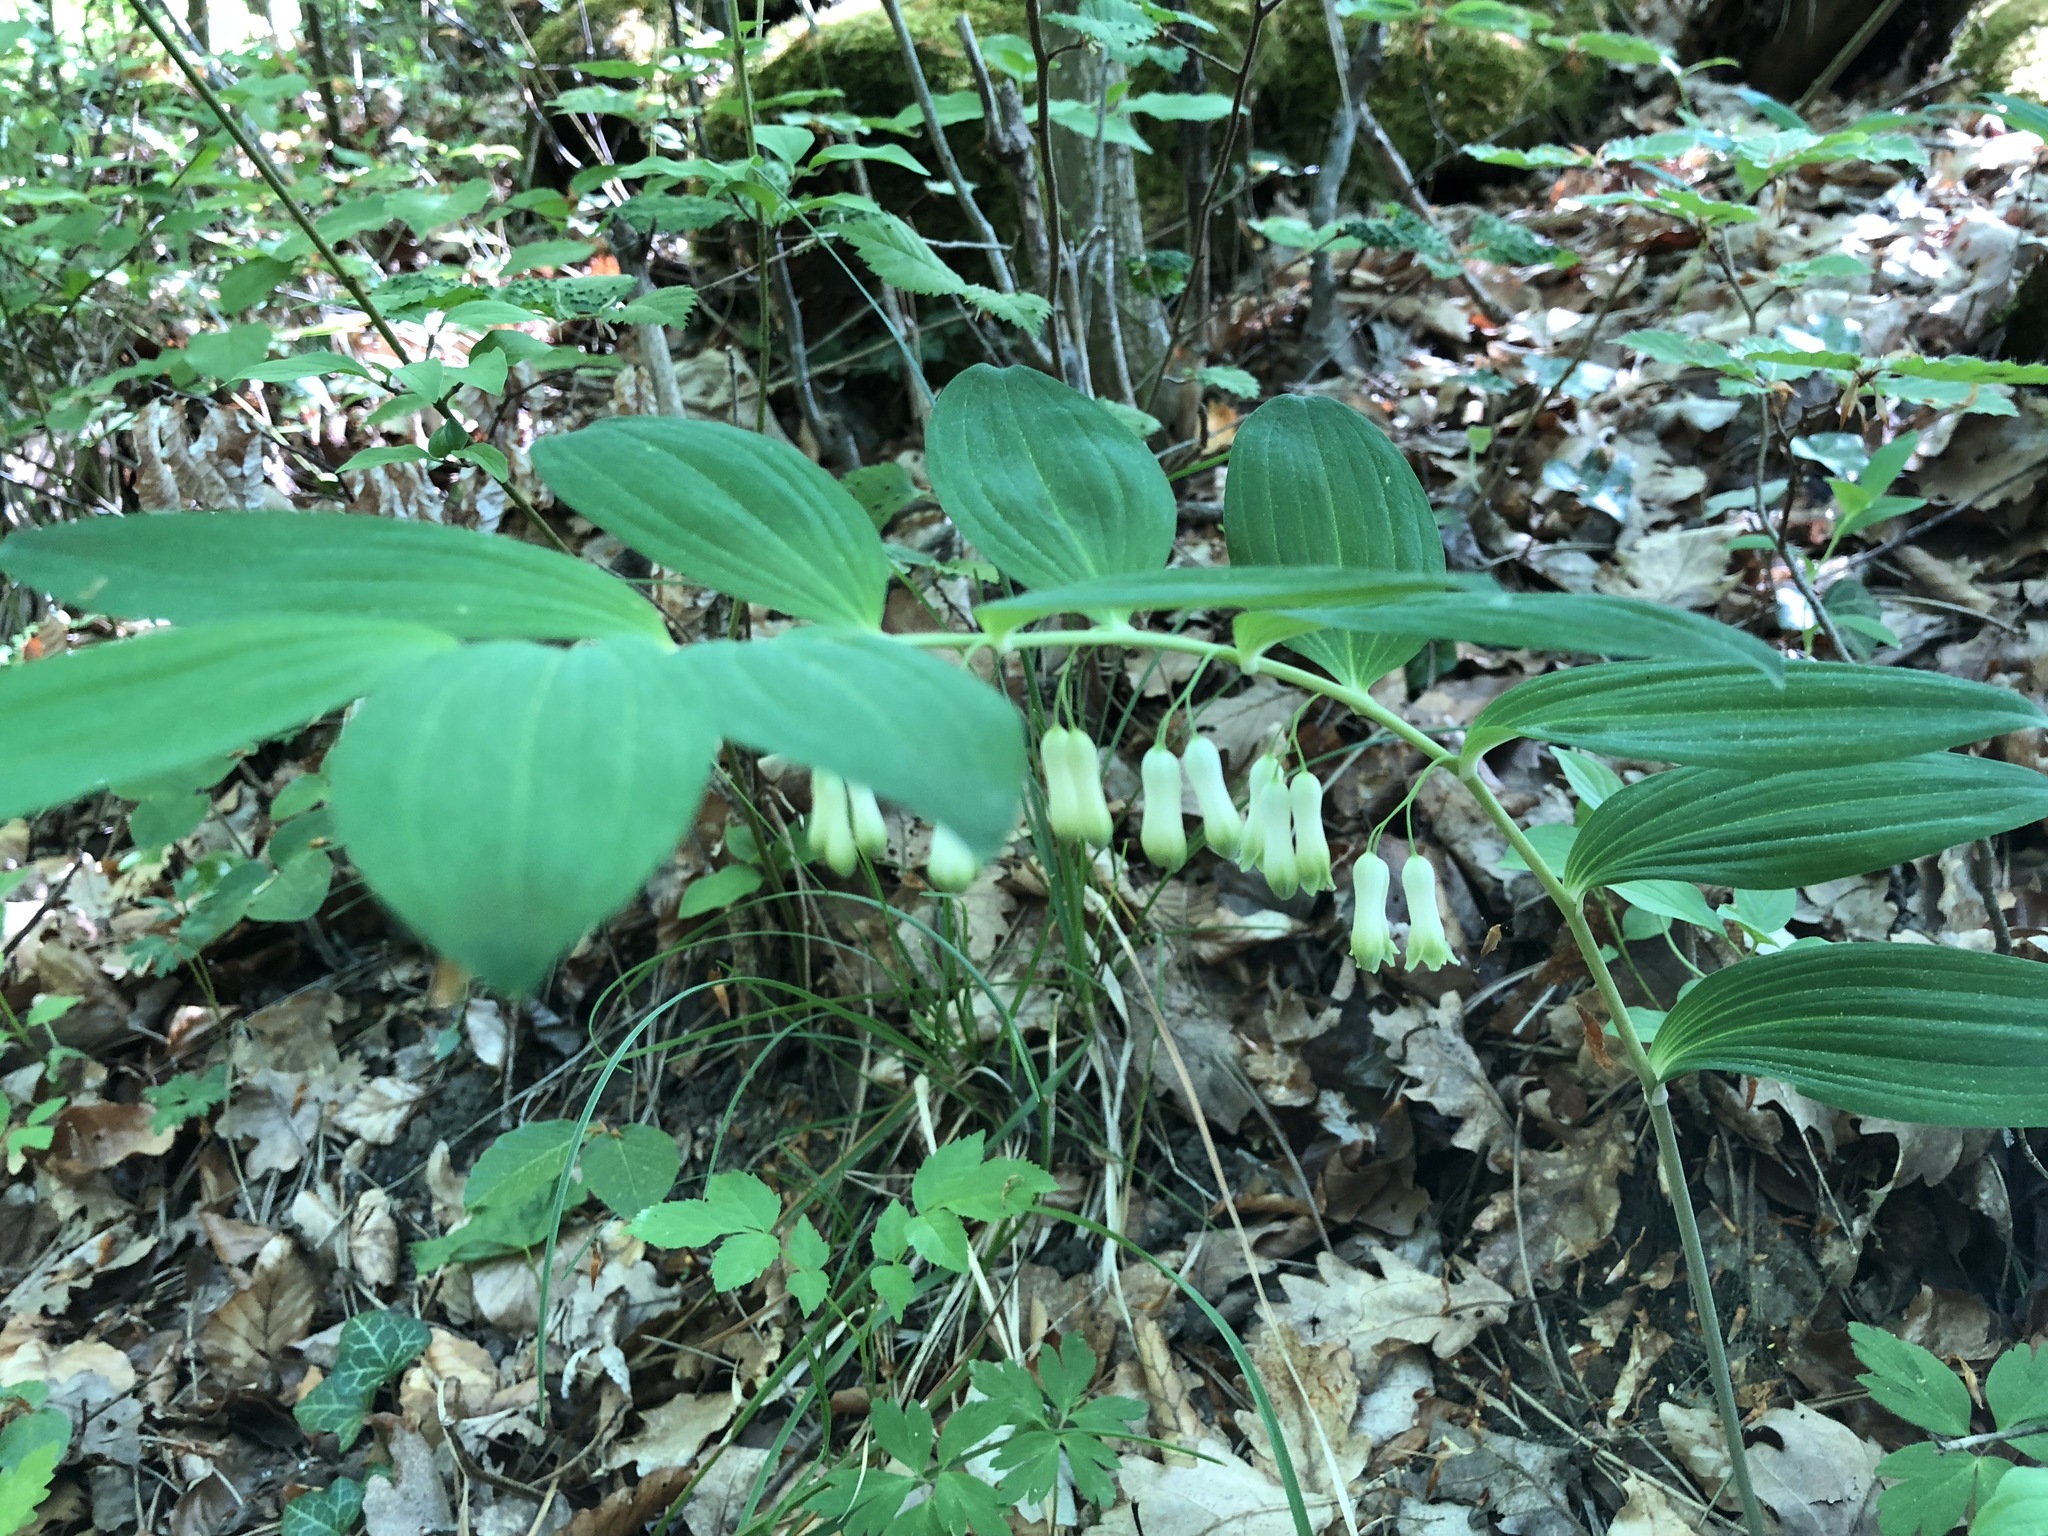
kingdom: Plantae
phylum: Tracheophyta
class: Liliopsida
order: Asparagales
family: Asparagaceae
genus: Polygonatum
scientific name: Polygonatum multiflorum
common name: Solomon's-seal
